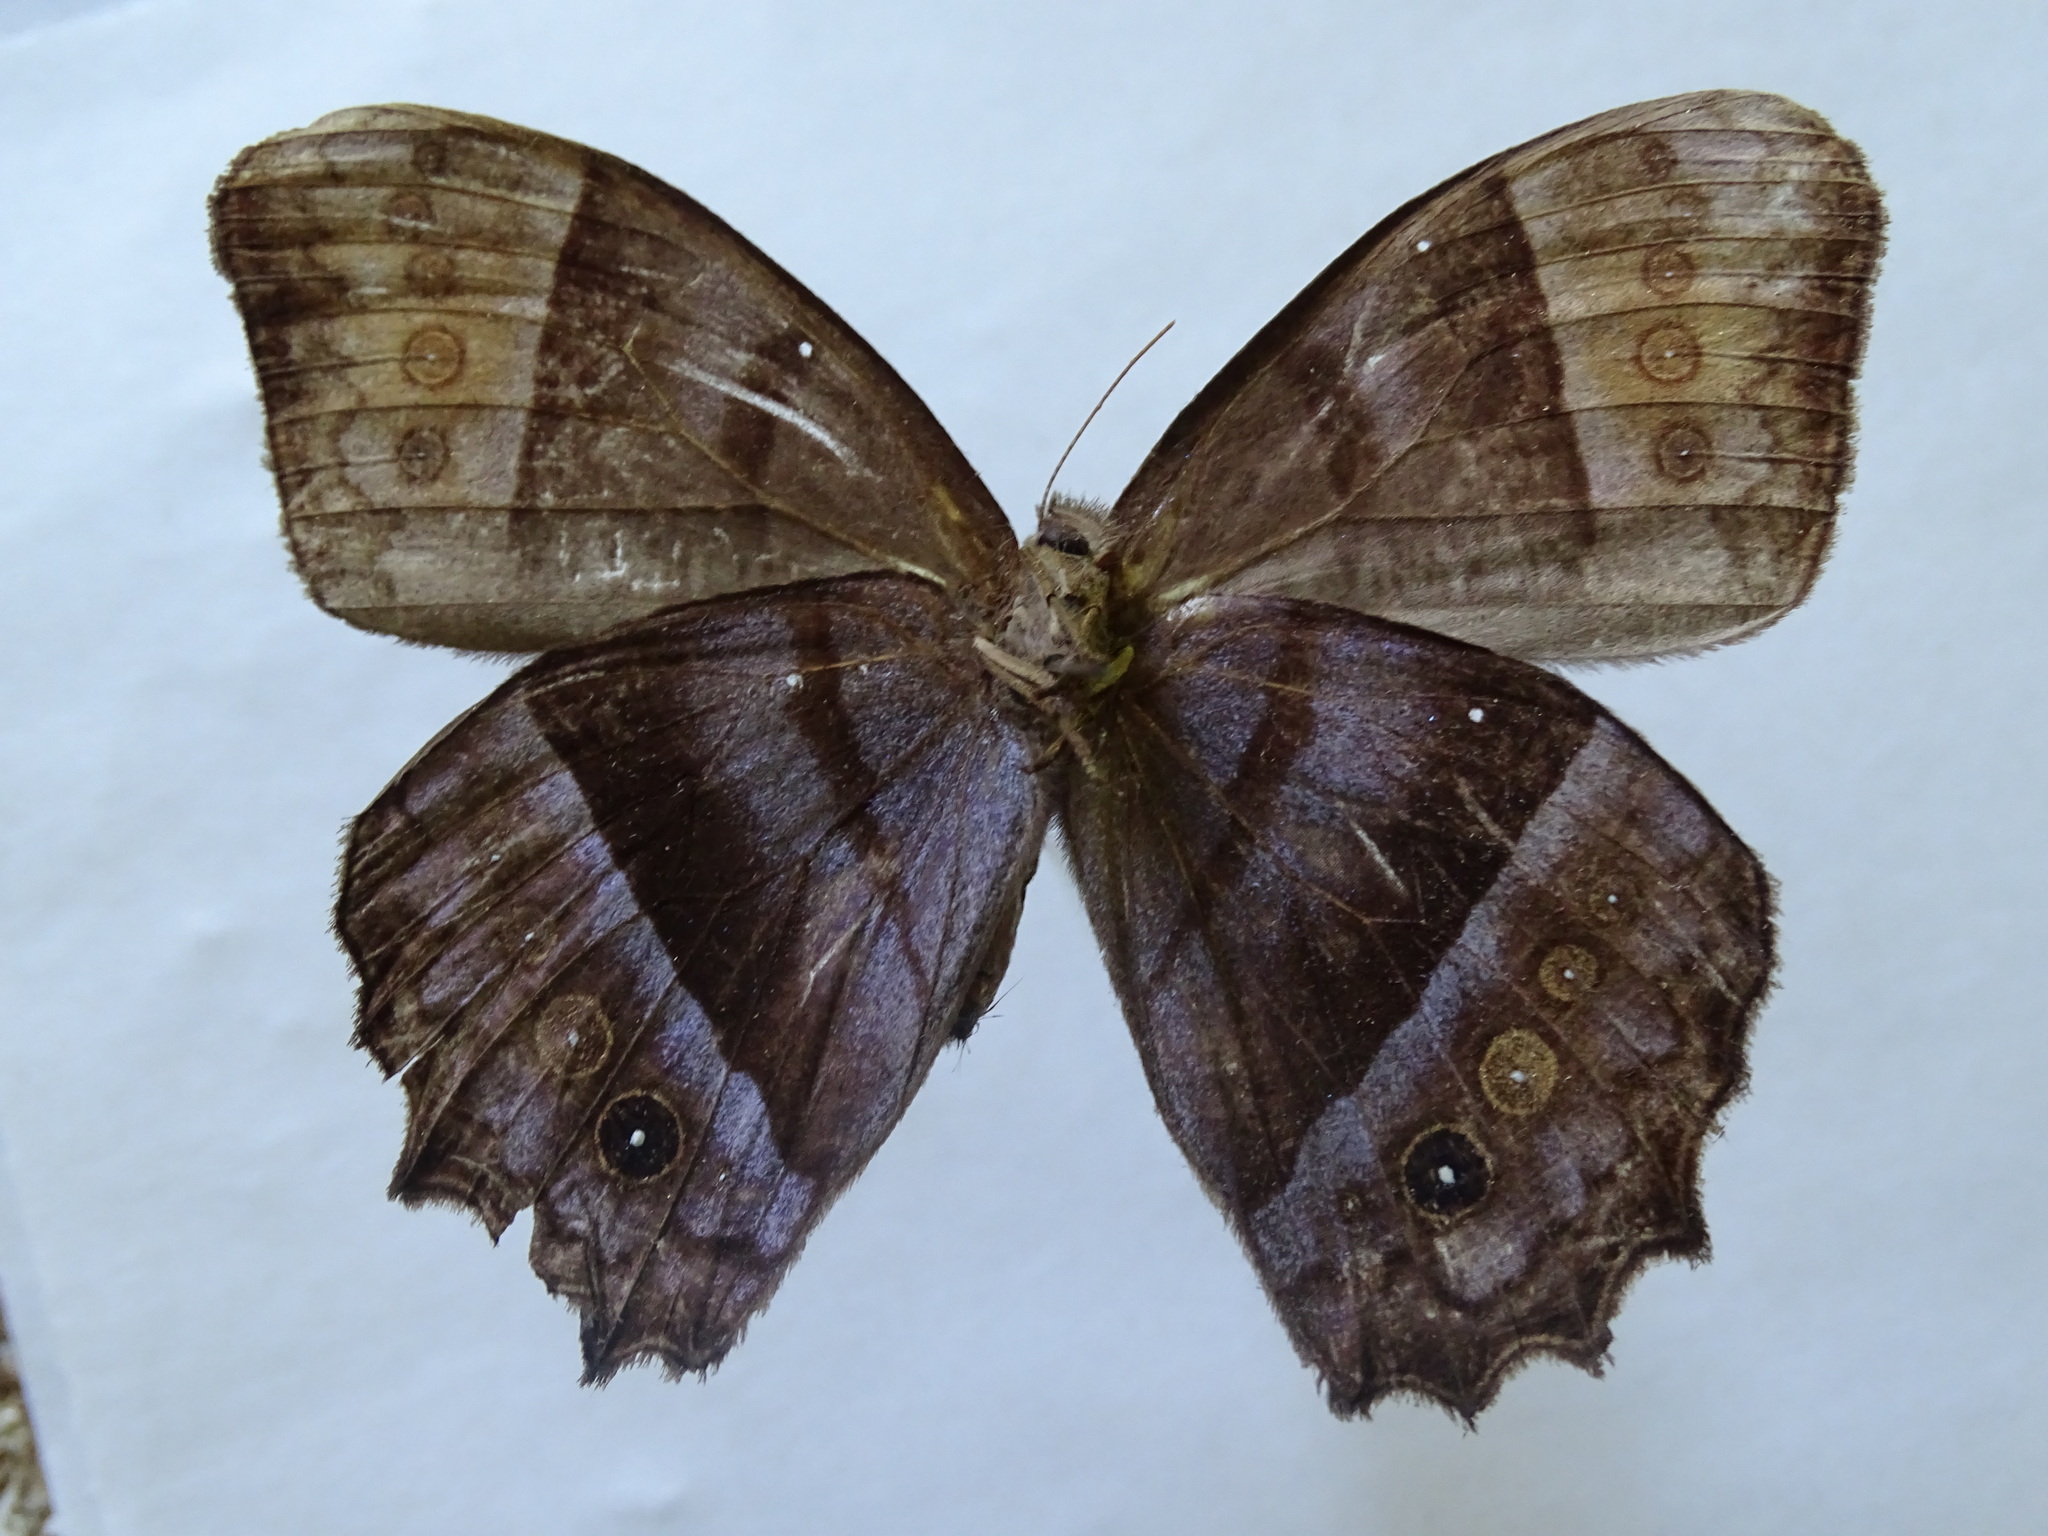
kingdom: Animalia
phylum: Arthropoda
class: Insecta
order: Lepidoptera
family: Nymphalidae
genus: Taygetis
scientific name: Taygetis andromeda
